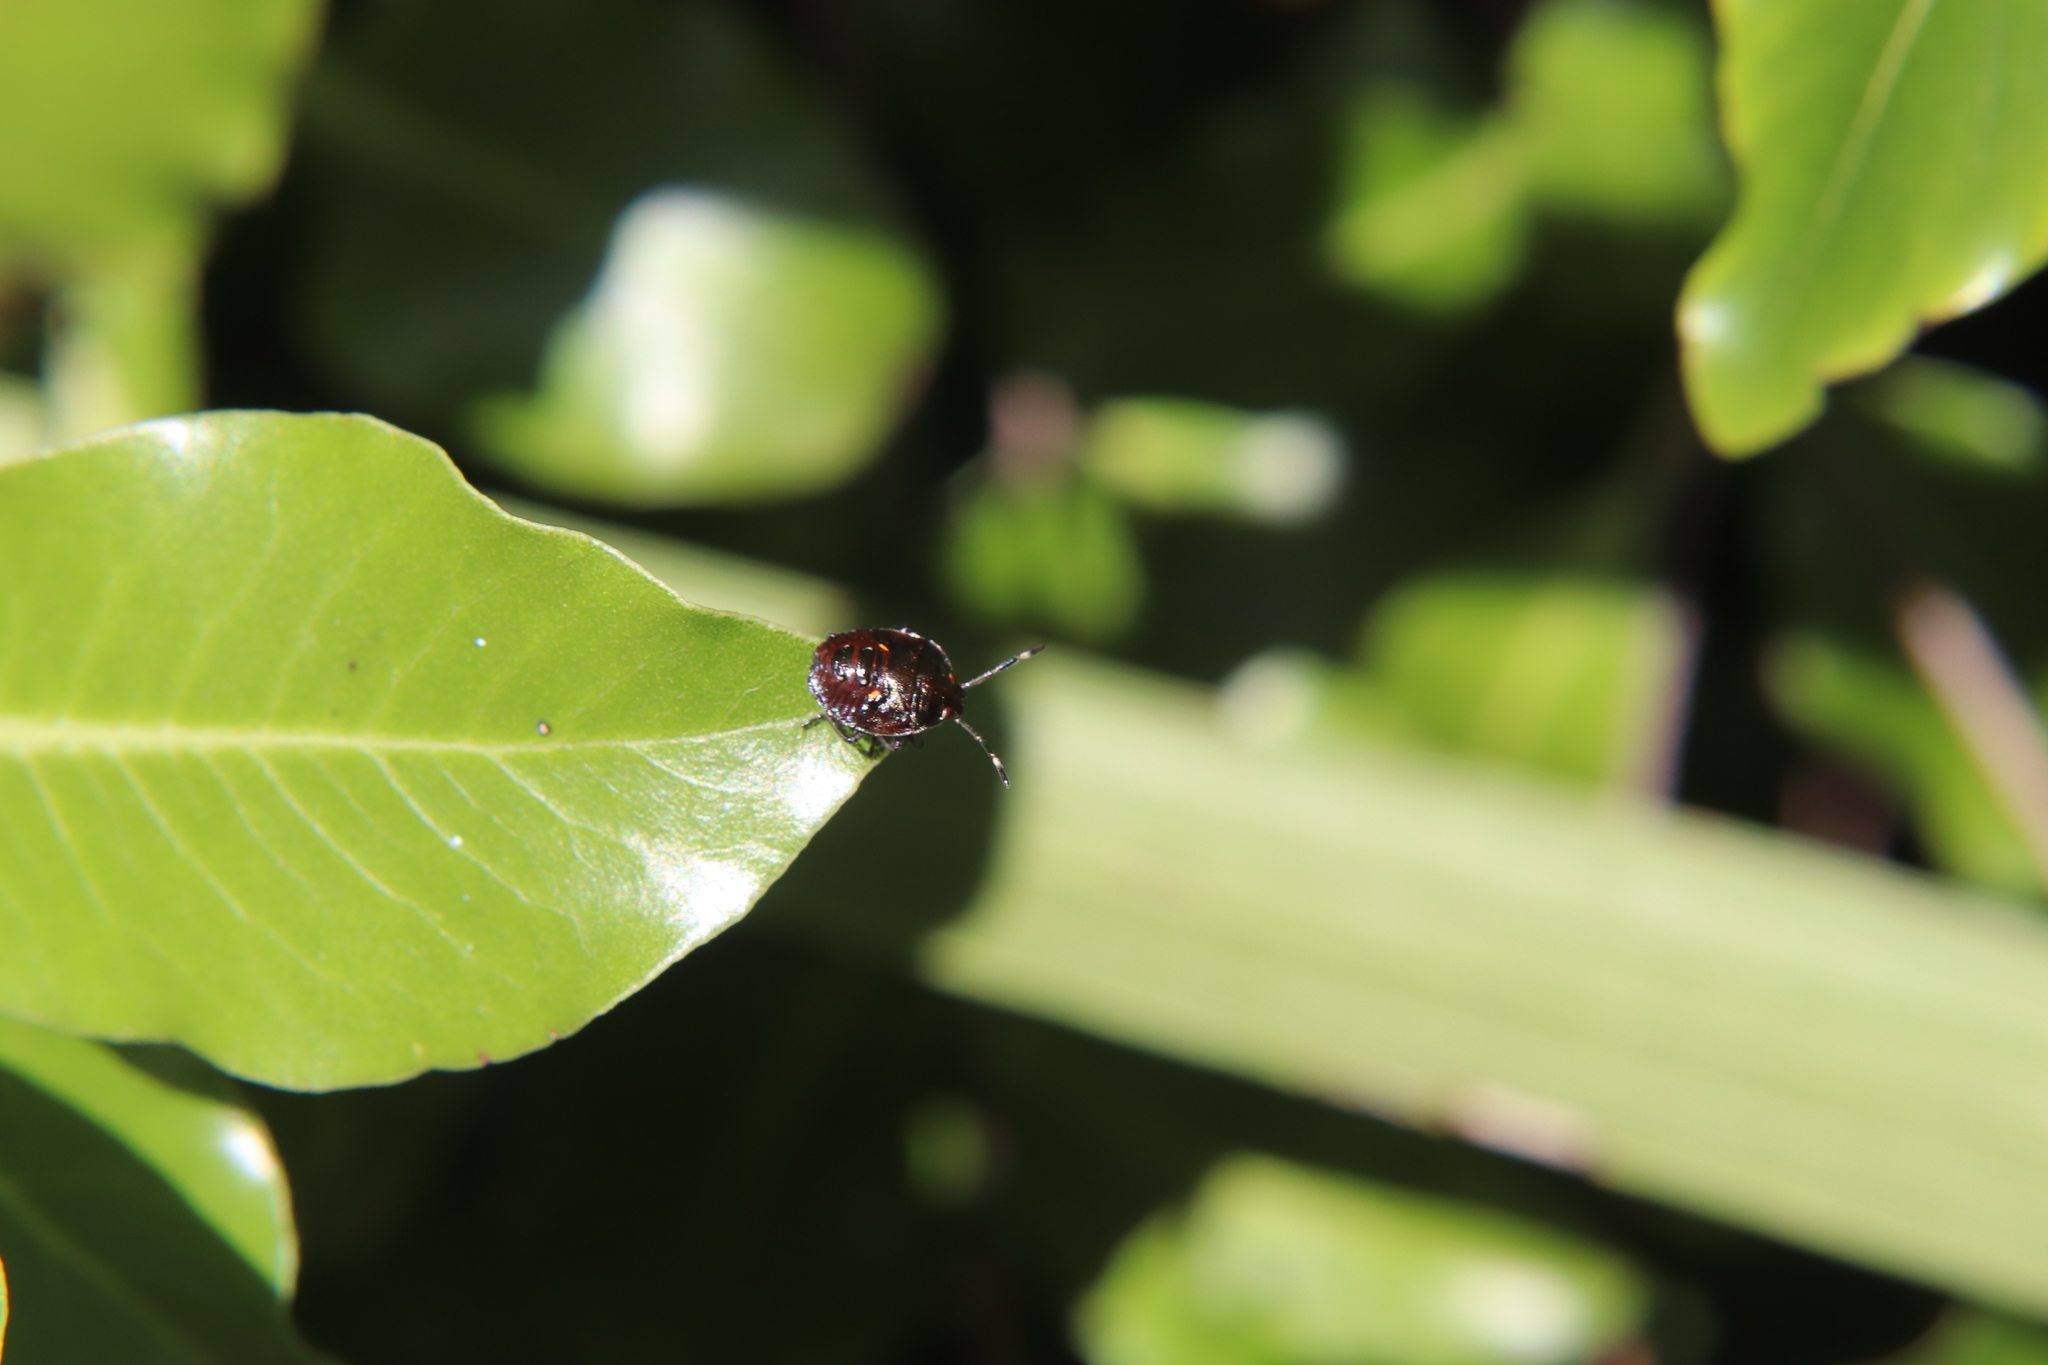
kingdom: Animalia
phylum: Arthropoda
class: Insecta
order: Hemiptera
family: Pentatomidae
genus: Monteithiella
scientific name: Monteithiella
